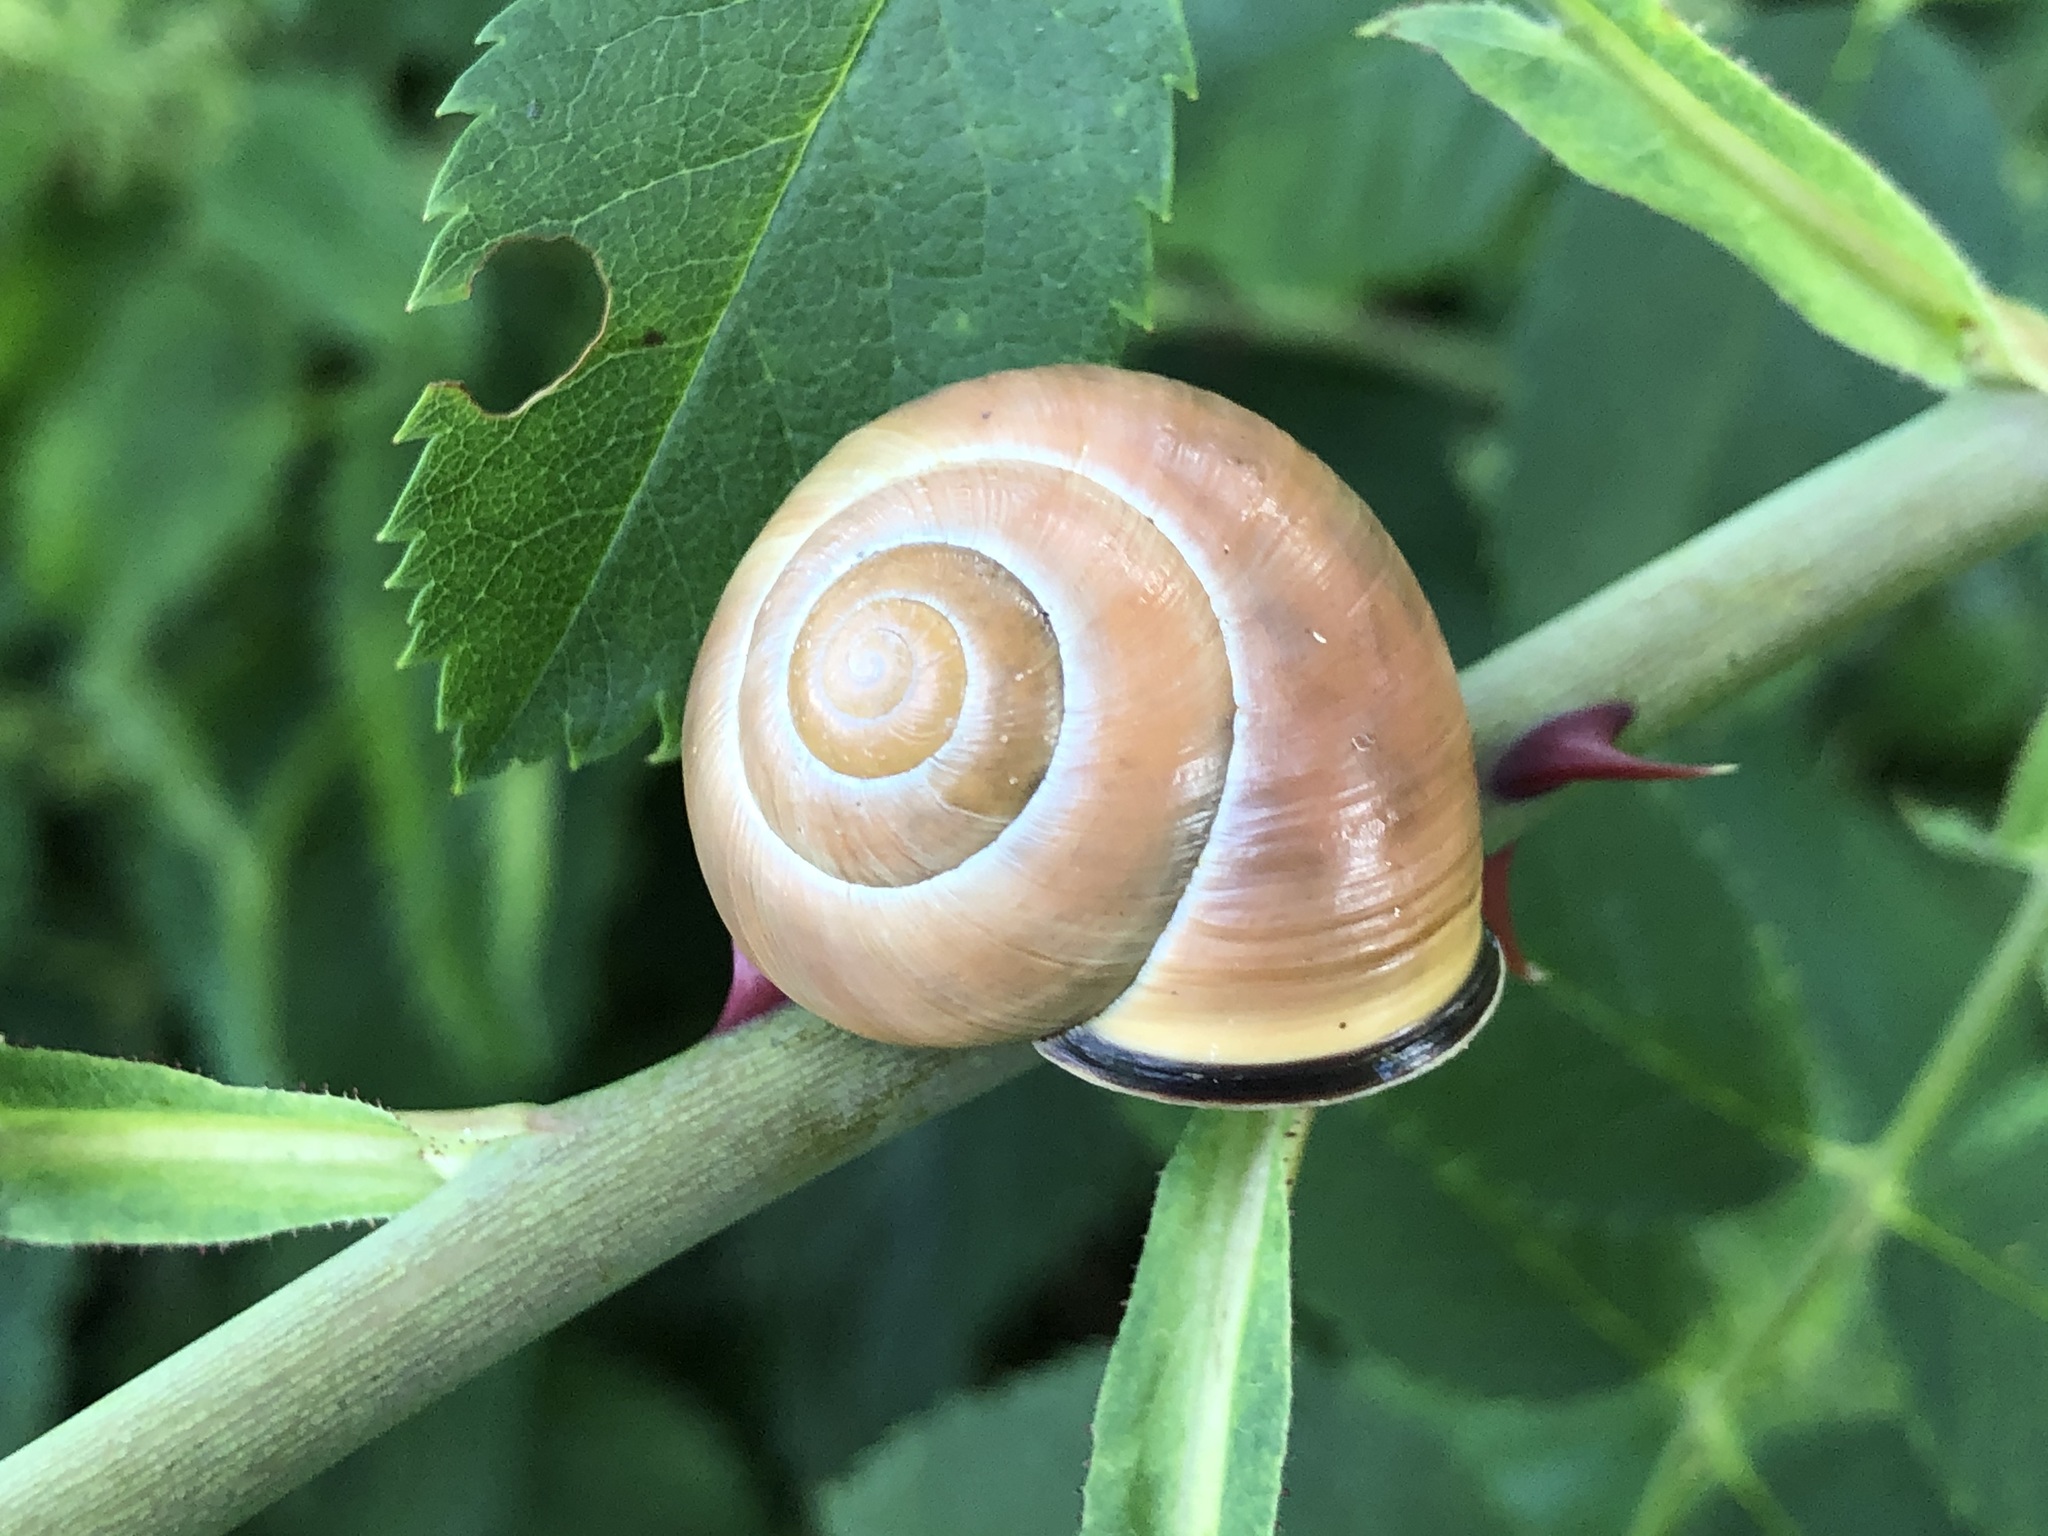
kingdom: Animalia
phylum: Mollusca
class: Gastropoda
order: Stylommatophora
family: Helicidae
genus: Cepaea
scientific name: Cepaea nemoralis
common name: Grovesnail
